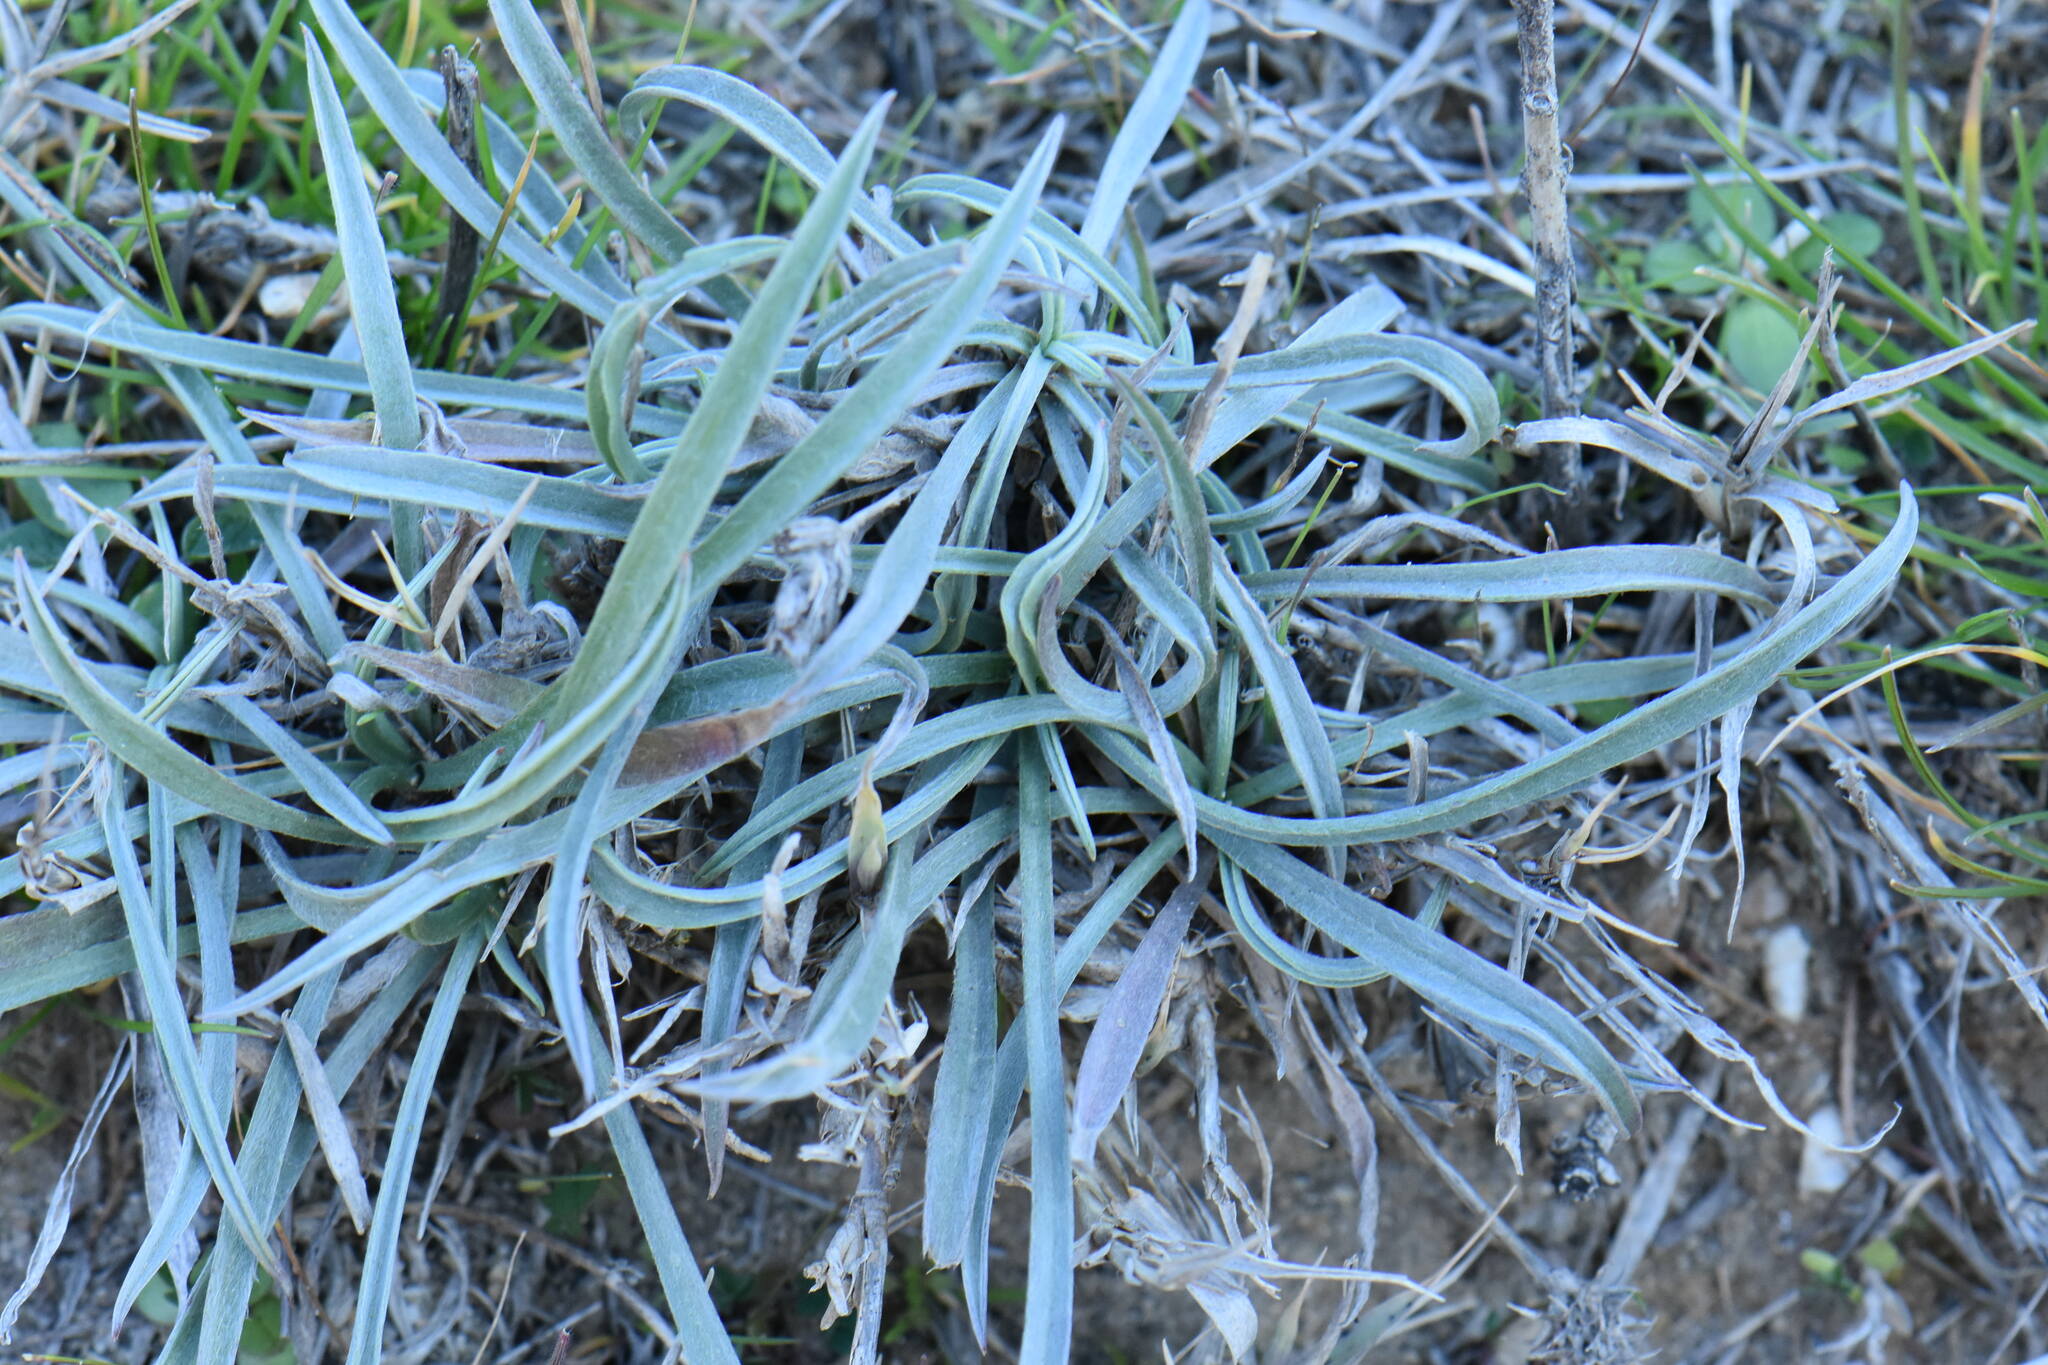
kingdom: Plantae
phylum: Tracheophyta
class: Magnoliopsida
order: Lamiales
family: Plantaginaceae
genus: Plantago
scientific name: Plantago albicans
